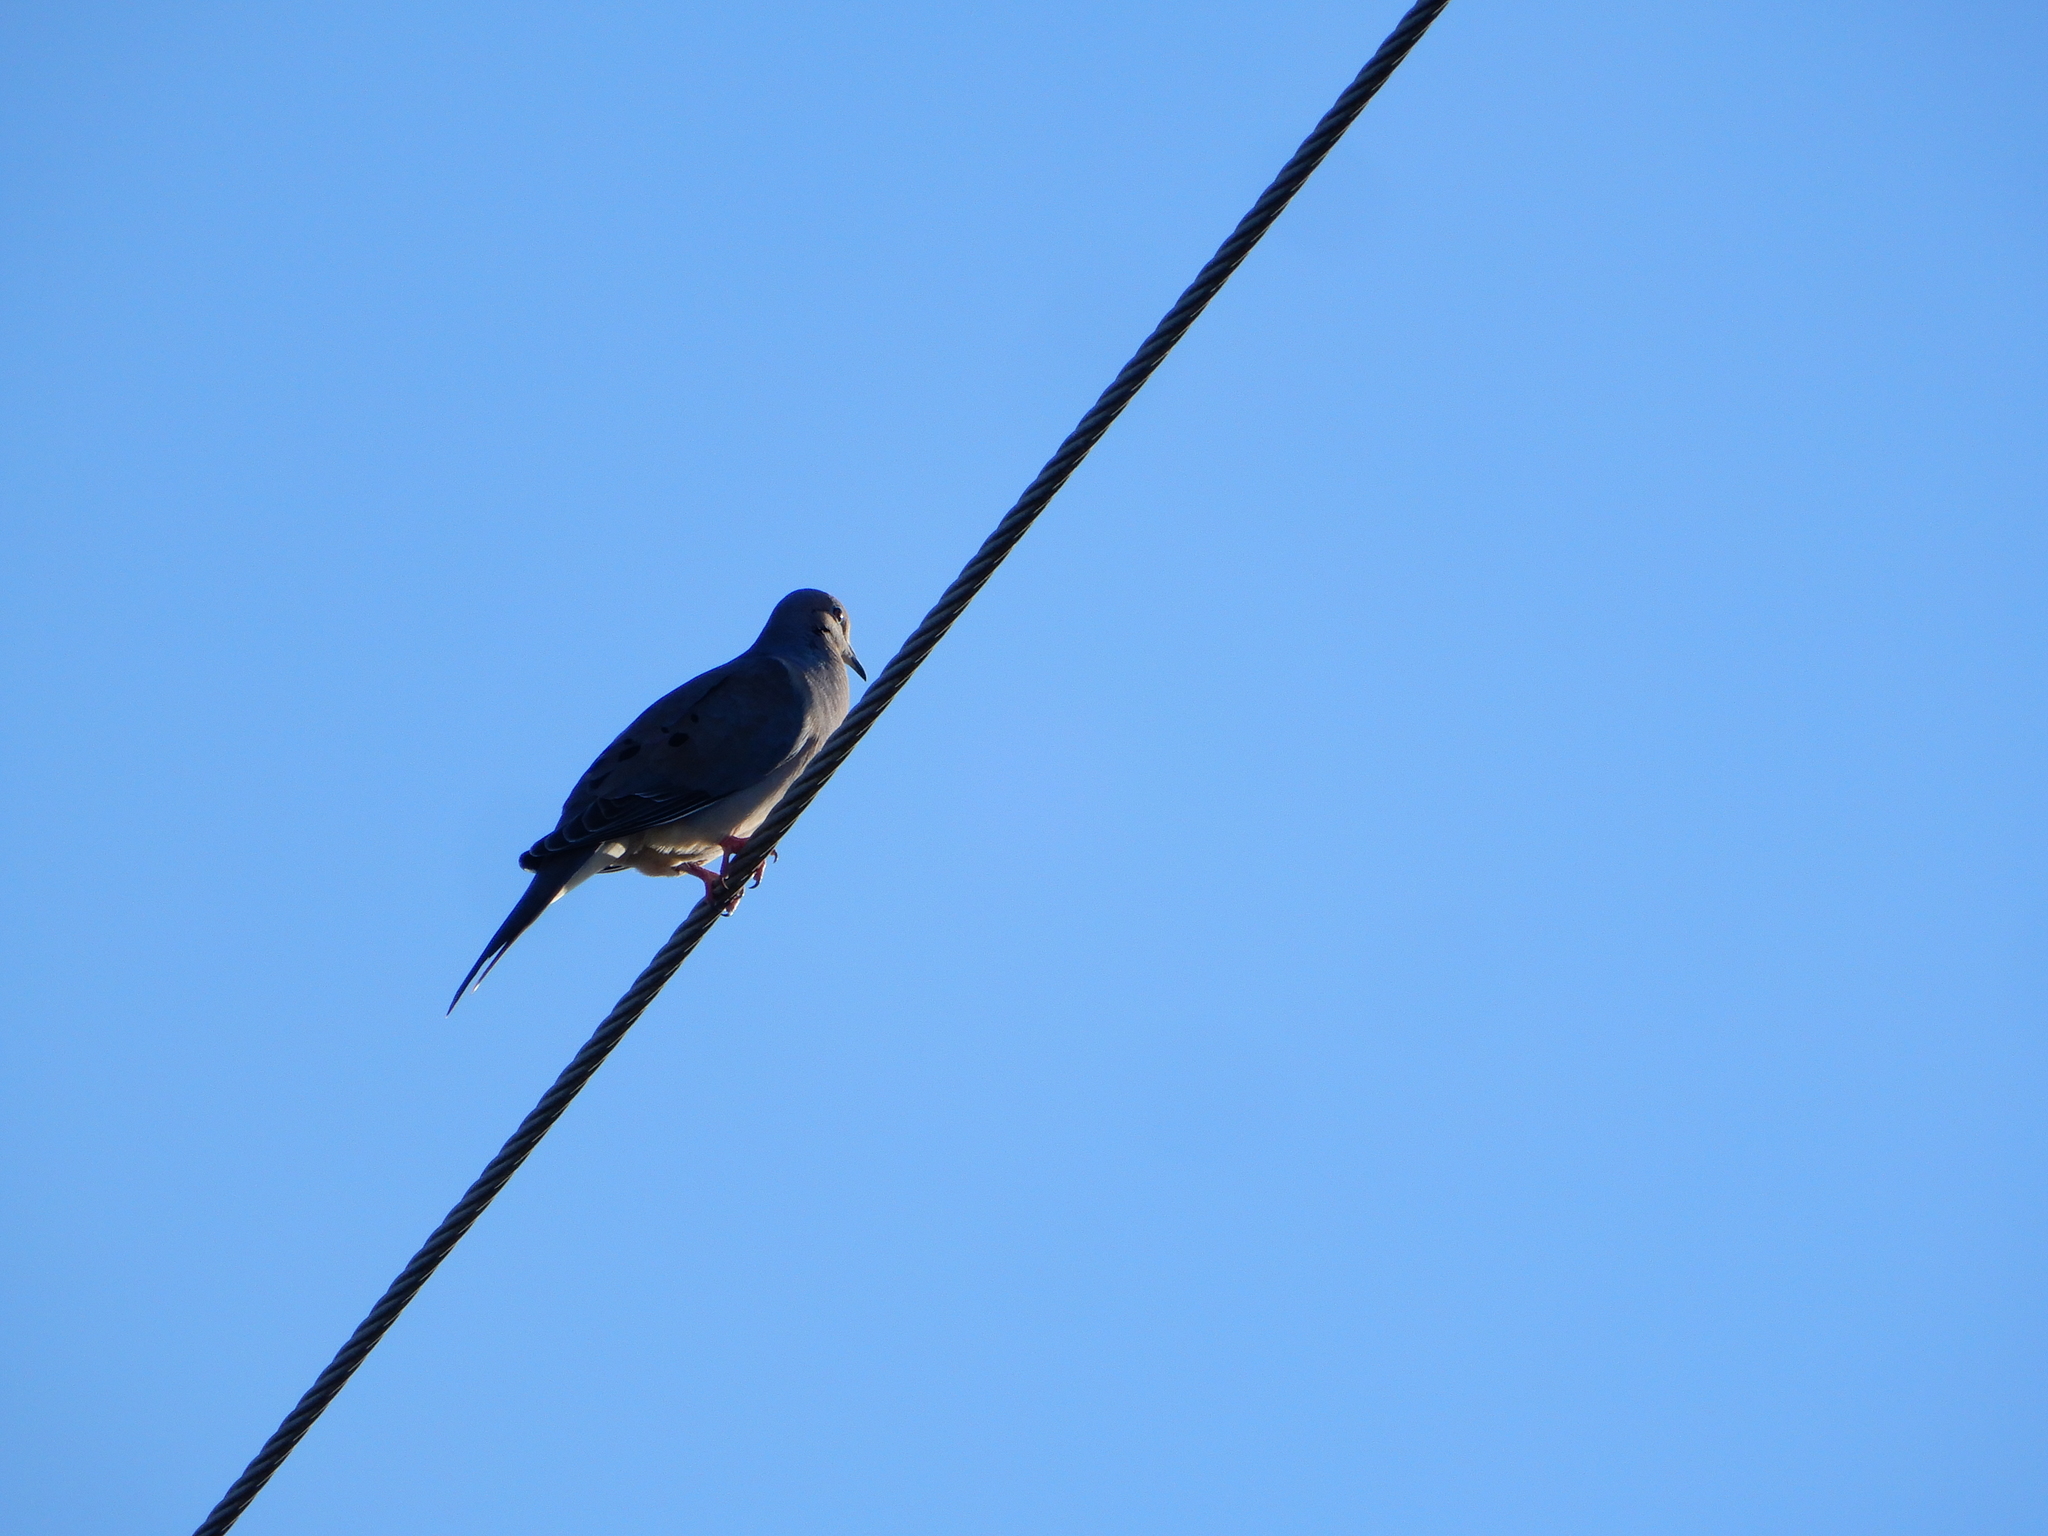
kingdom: Animalia
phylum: Chordata
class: Aves
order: Columbiformes
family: Columbidae
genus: Zenaida
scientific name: Zenaida macroura
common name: Mourning dove
